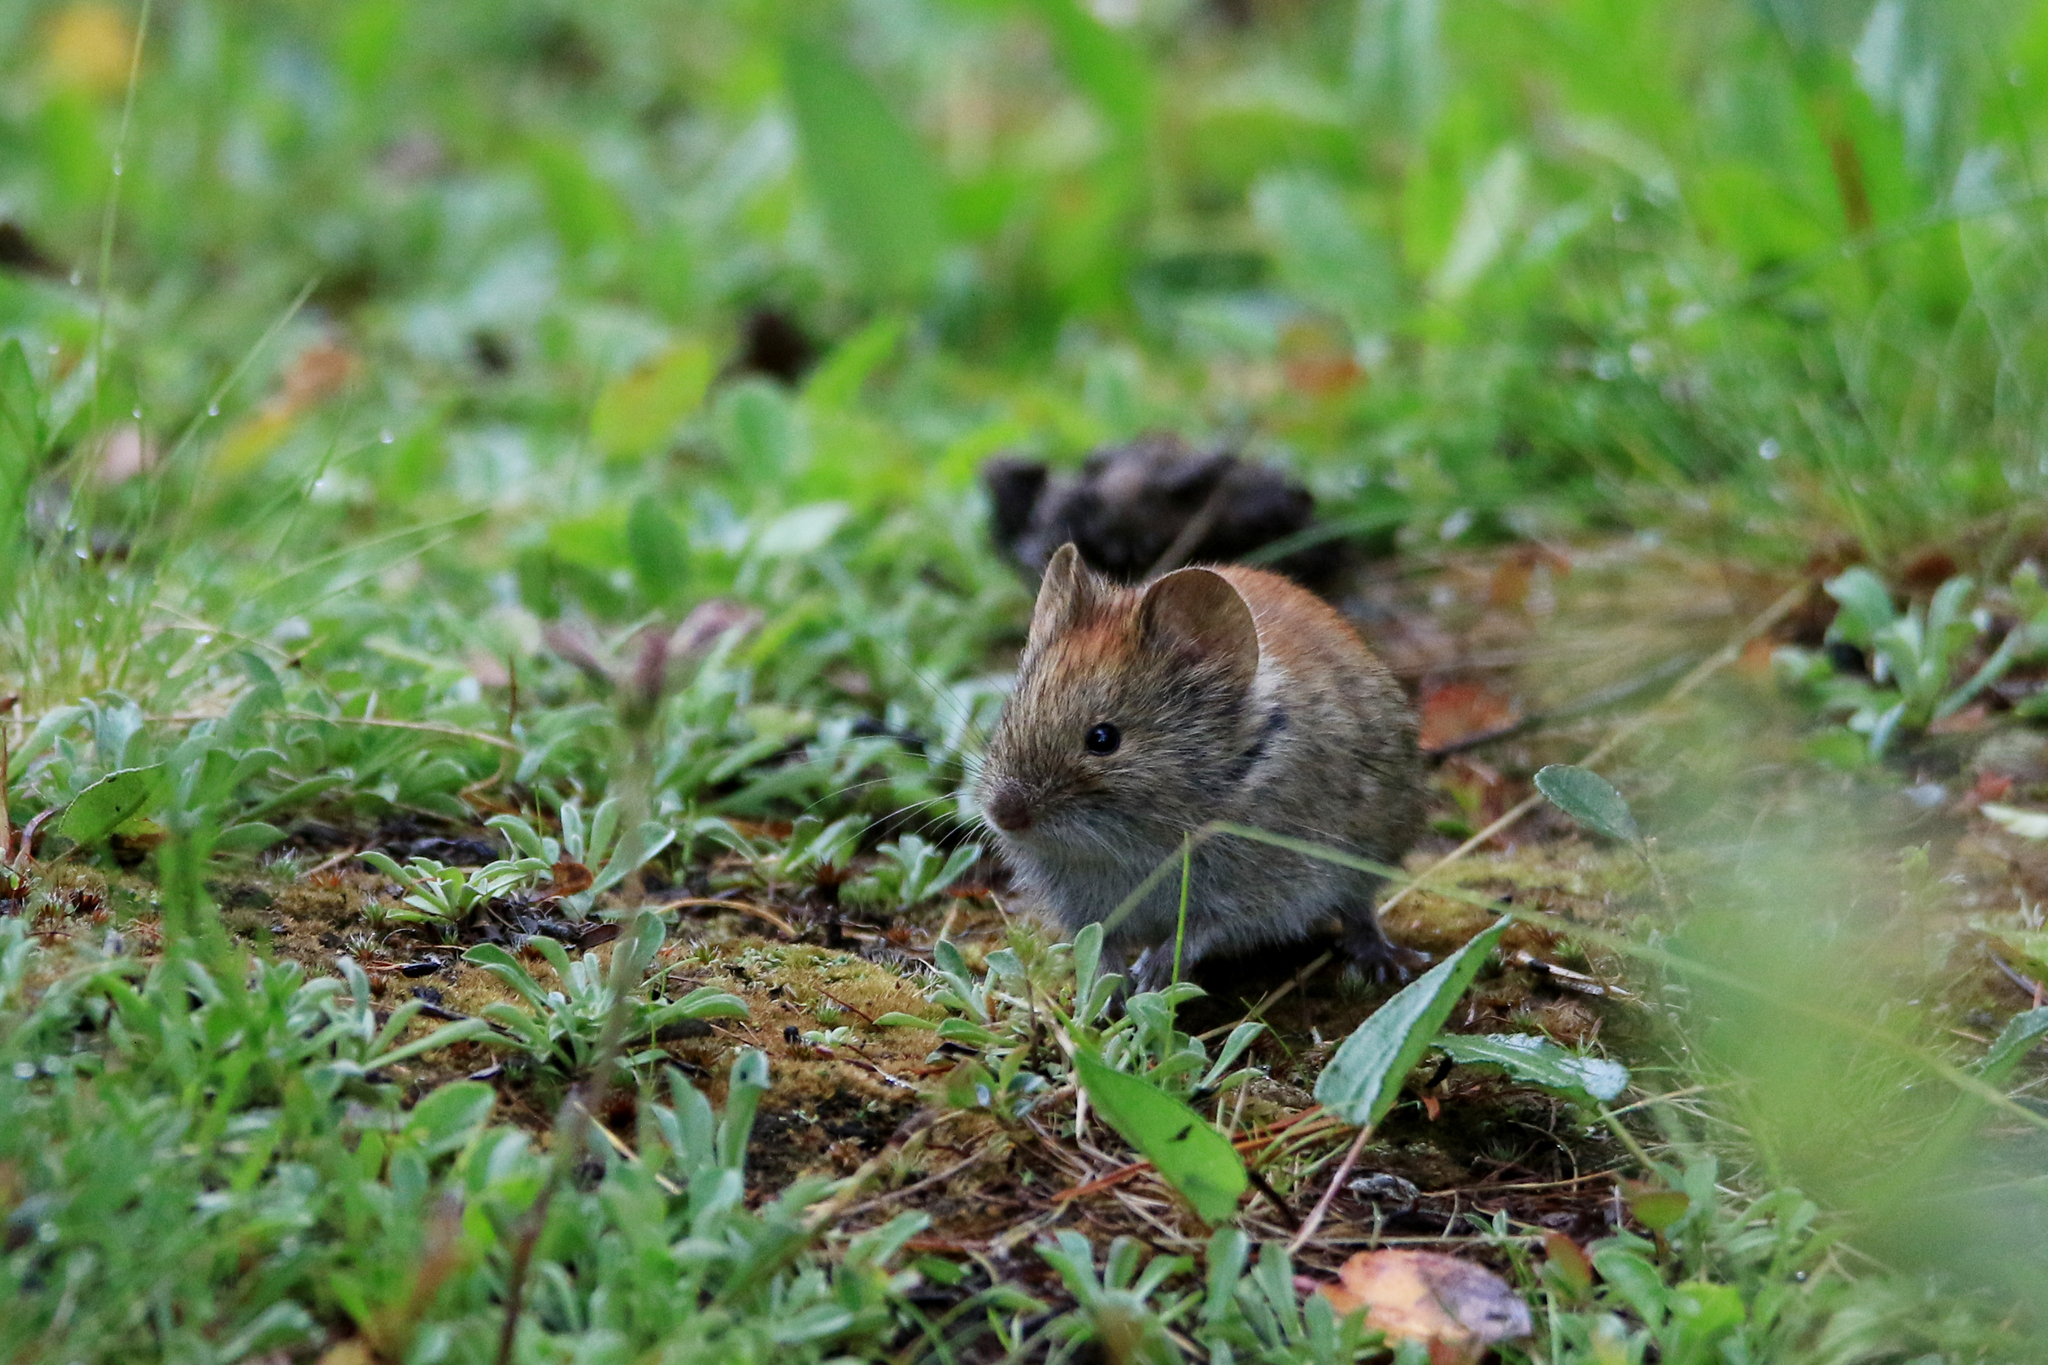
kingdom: Animalia
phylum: Chordata
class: Mammalia
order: Rodentia
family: Cricetidae
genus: Myodes
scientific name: Myodes rutilus
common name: Northern red-backed vole
